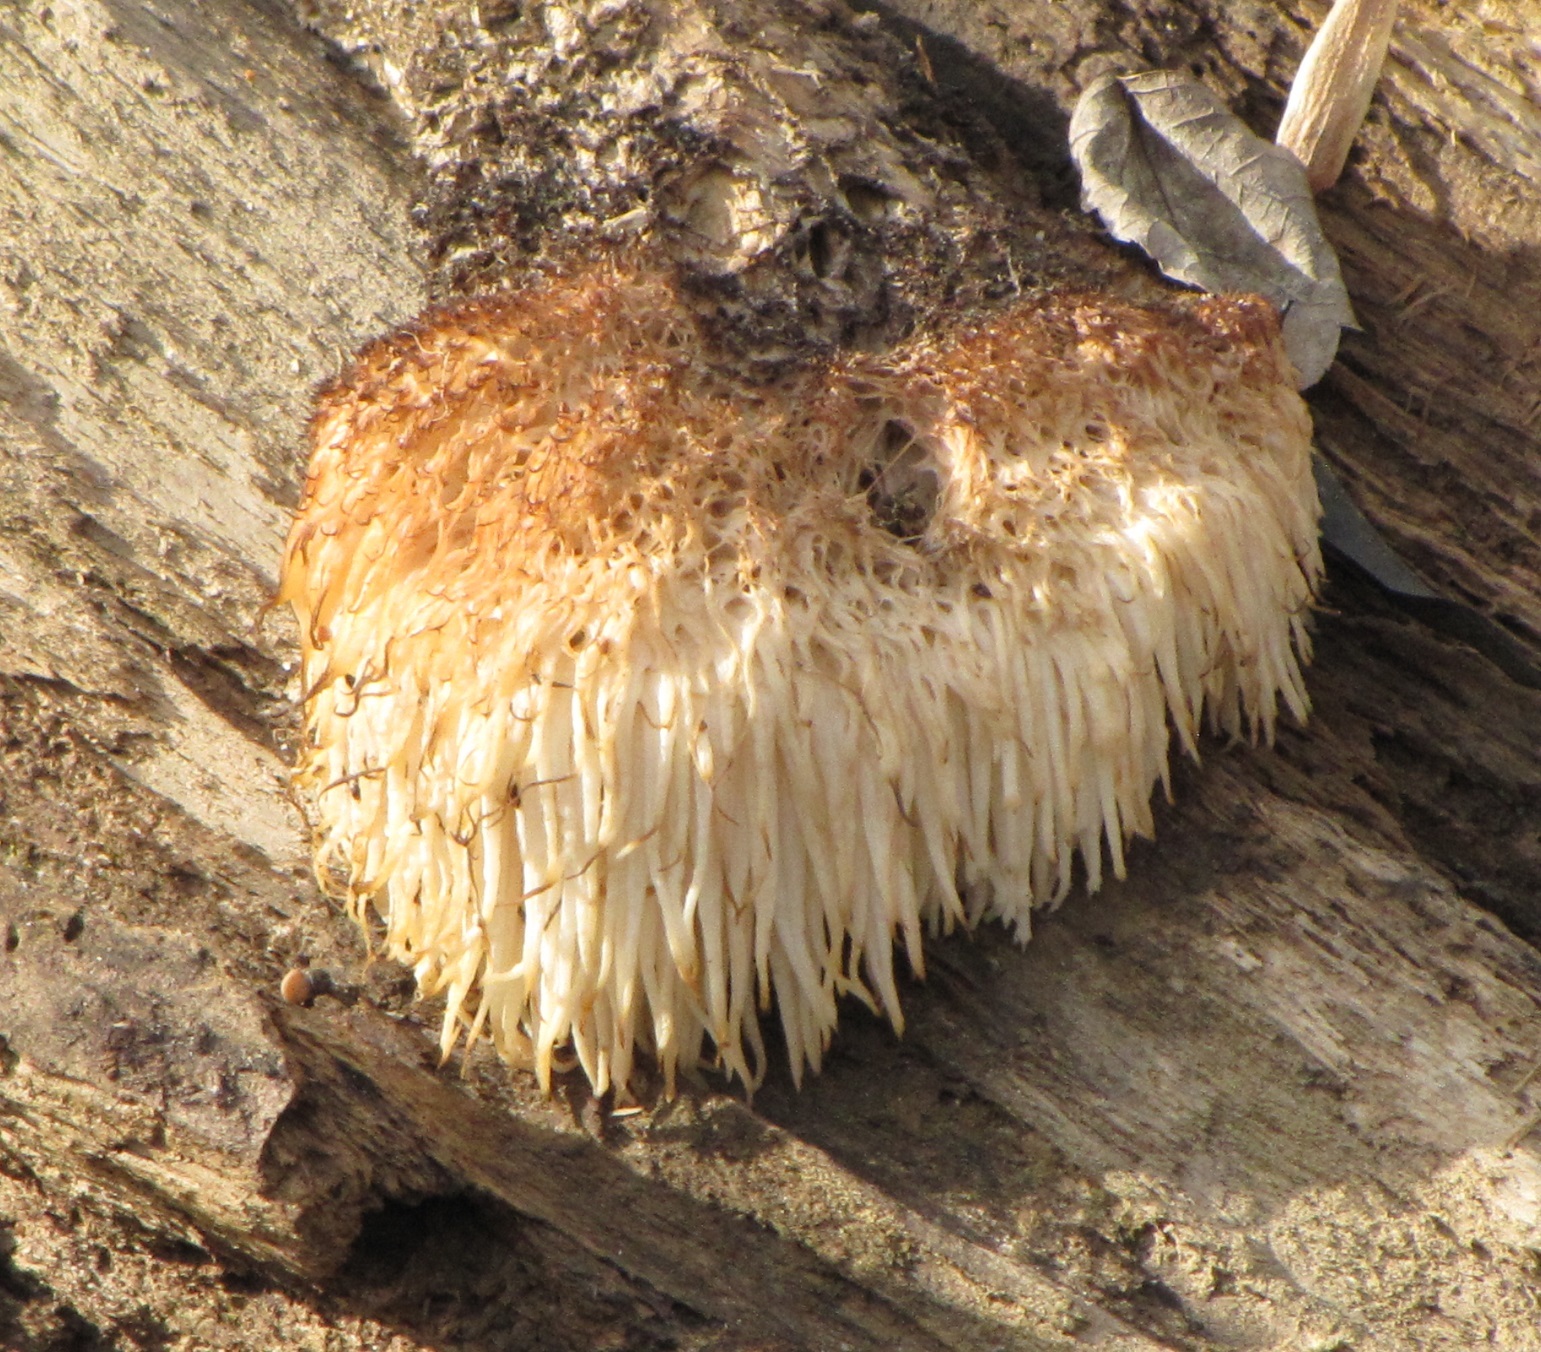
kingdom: Fungi
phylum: Basidiomycota
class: Agaricomycetes
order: Russulales
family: Hericiaceae
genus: Hericium
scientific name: Hericium erinaceus
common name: Bearded tooth
